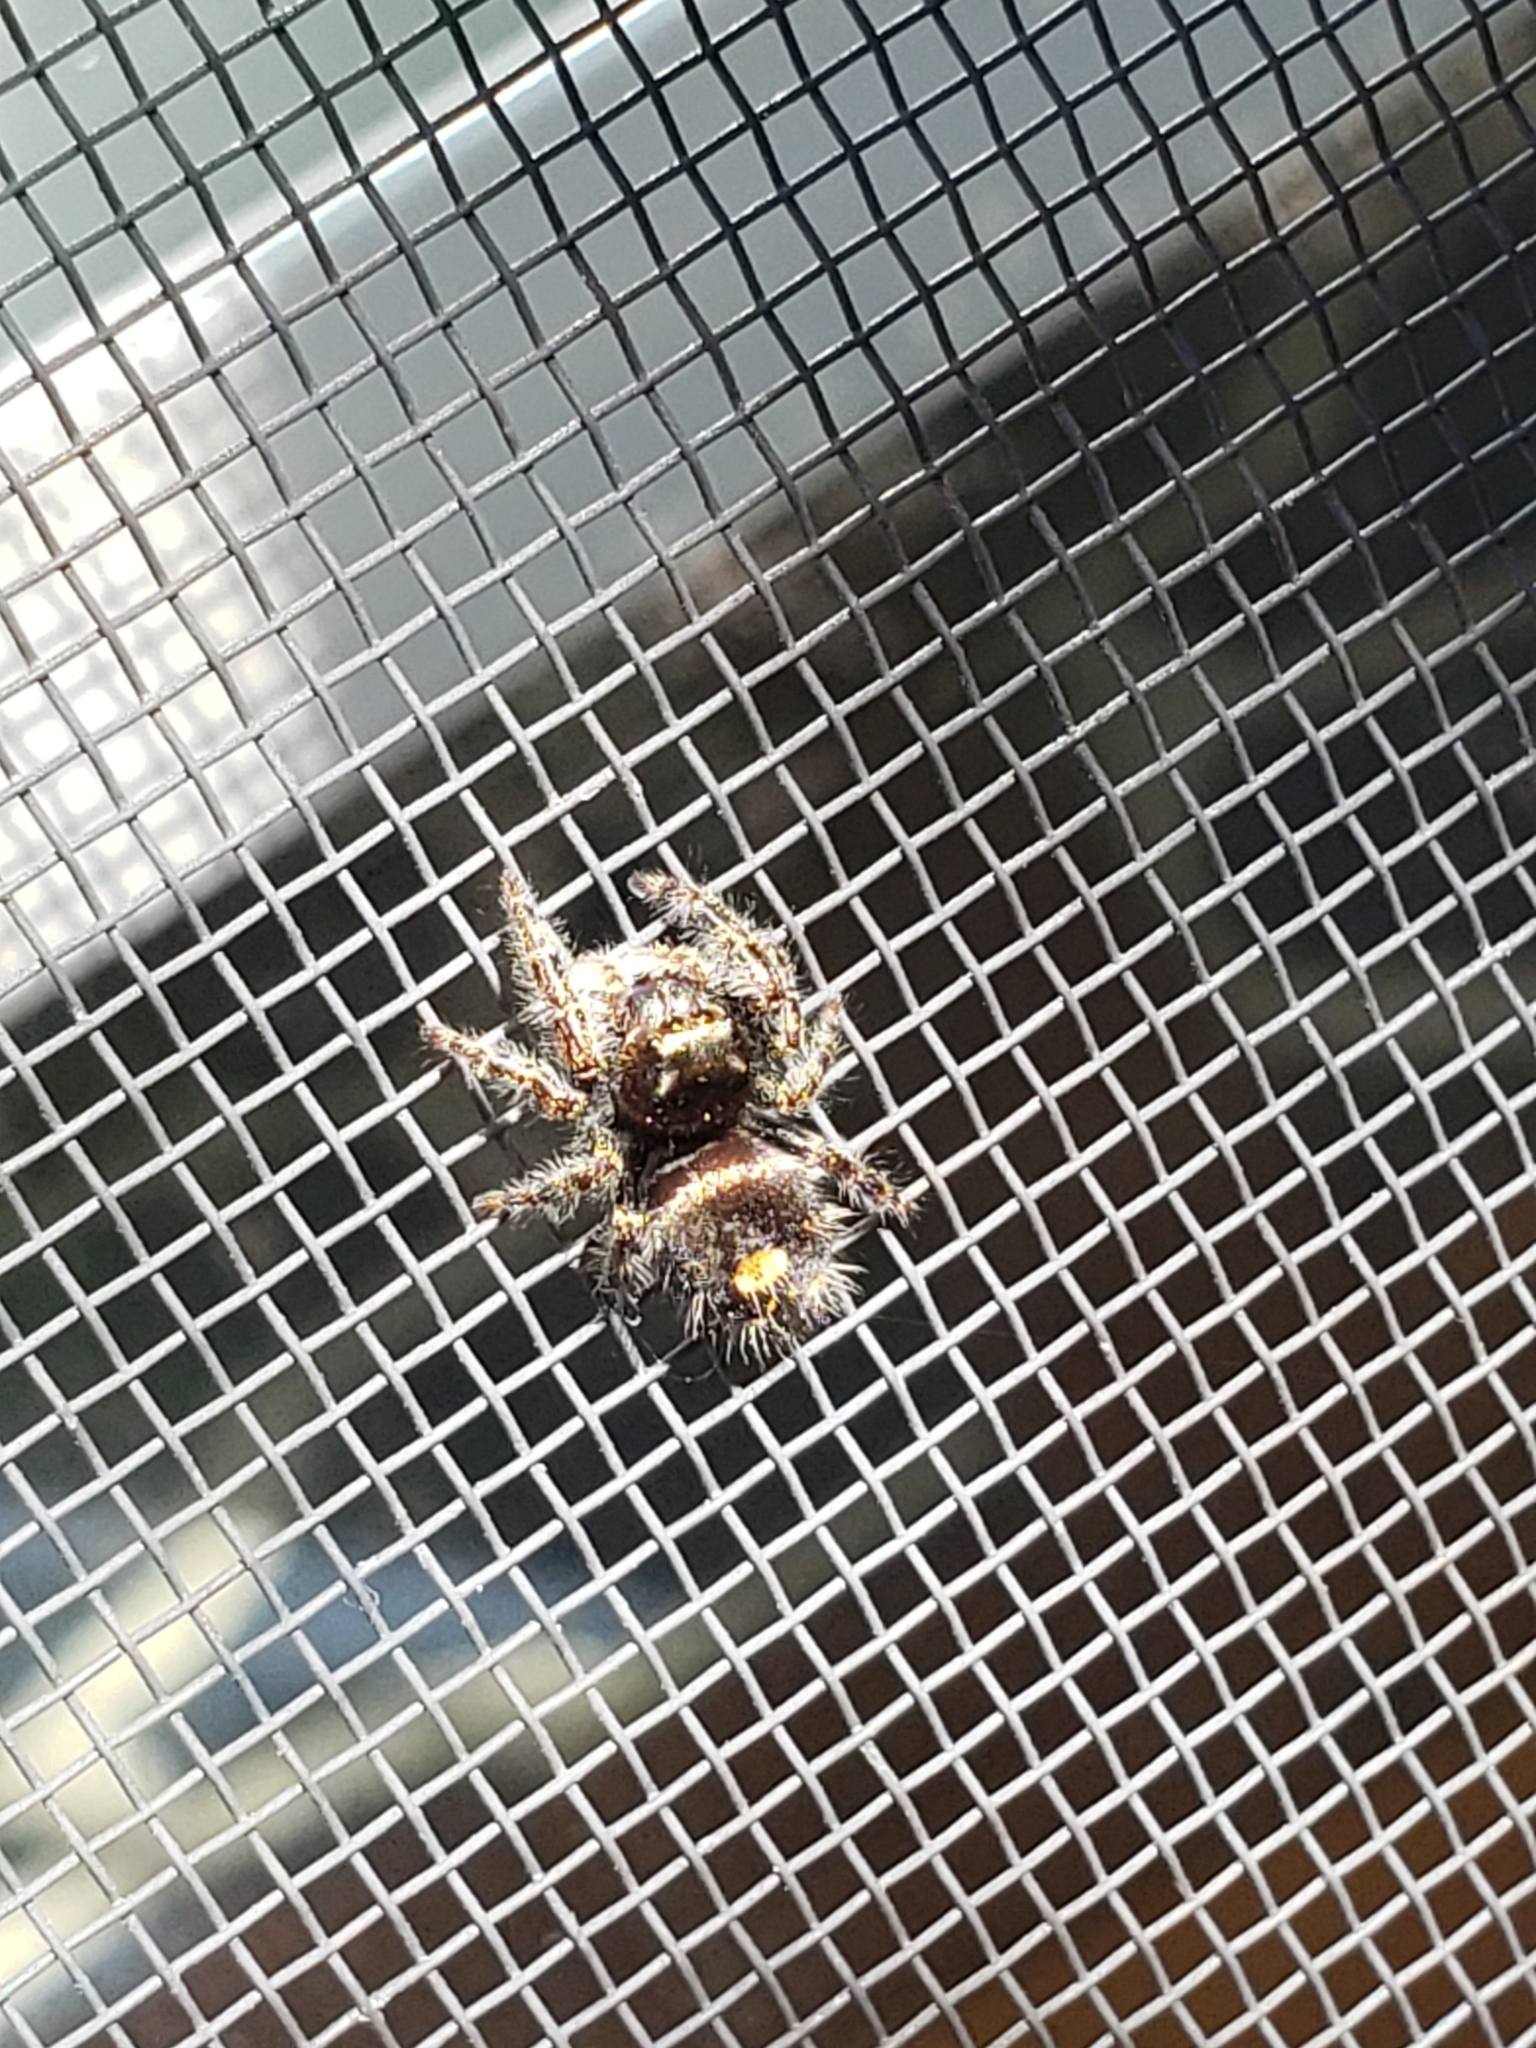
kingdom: Animalia
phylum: Arthropoda
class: Arachnida
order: Araneae
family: Salticidae
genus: Phidippus
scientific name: Phidippus audax
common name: Bold jumper
